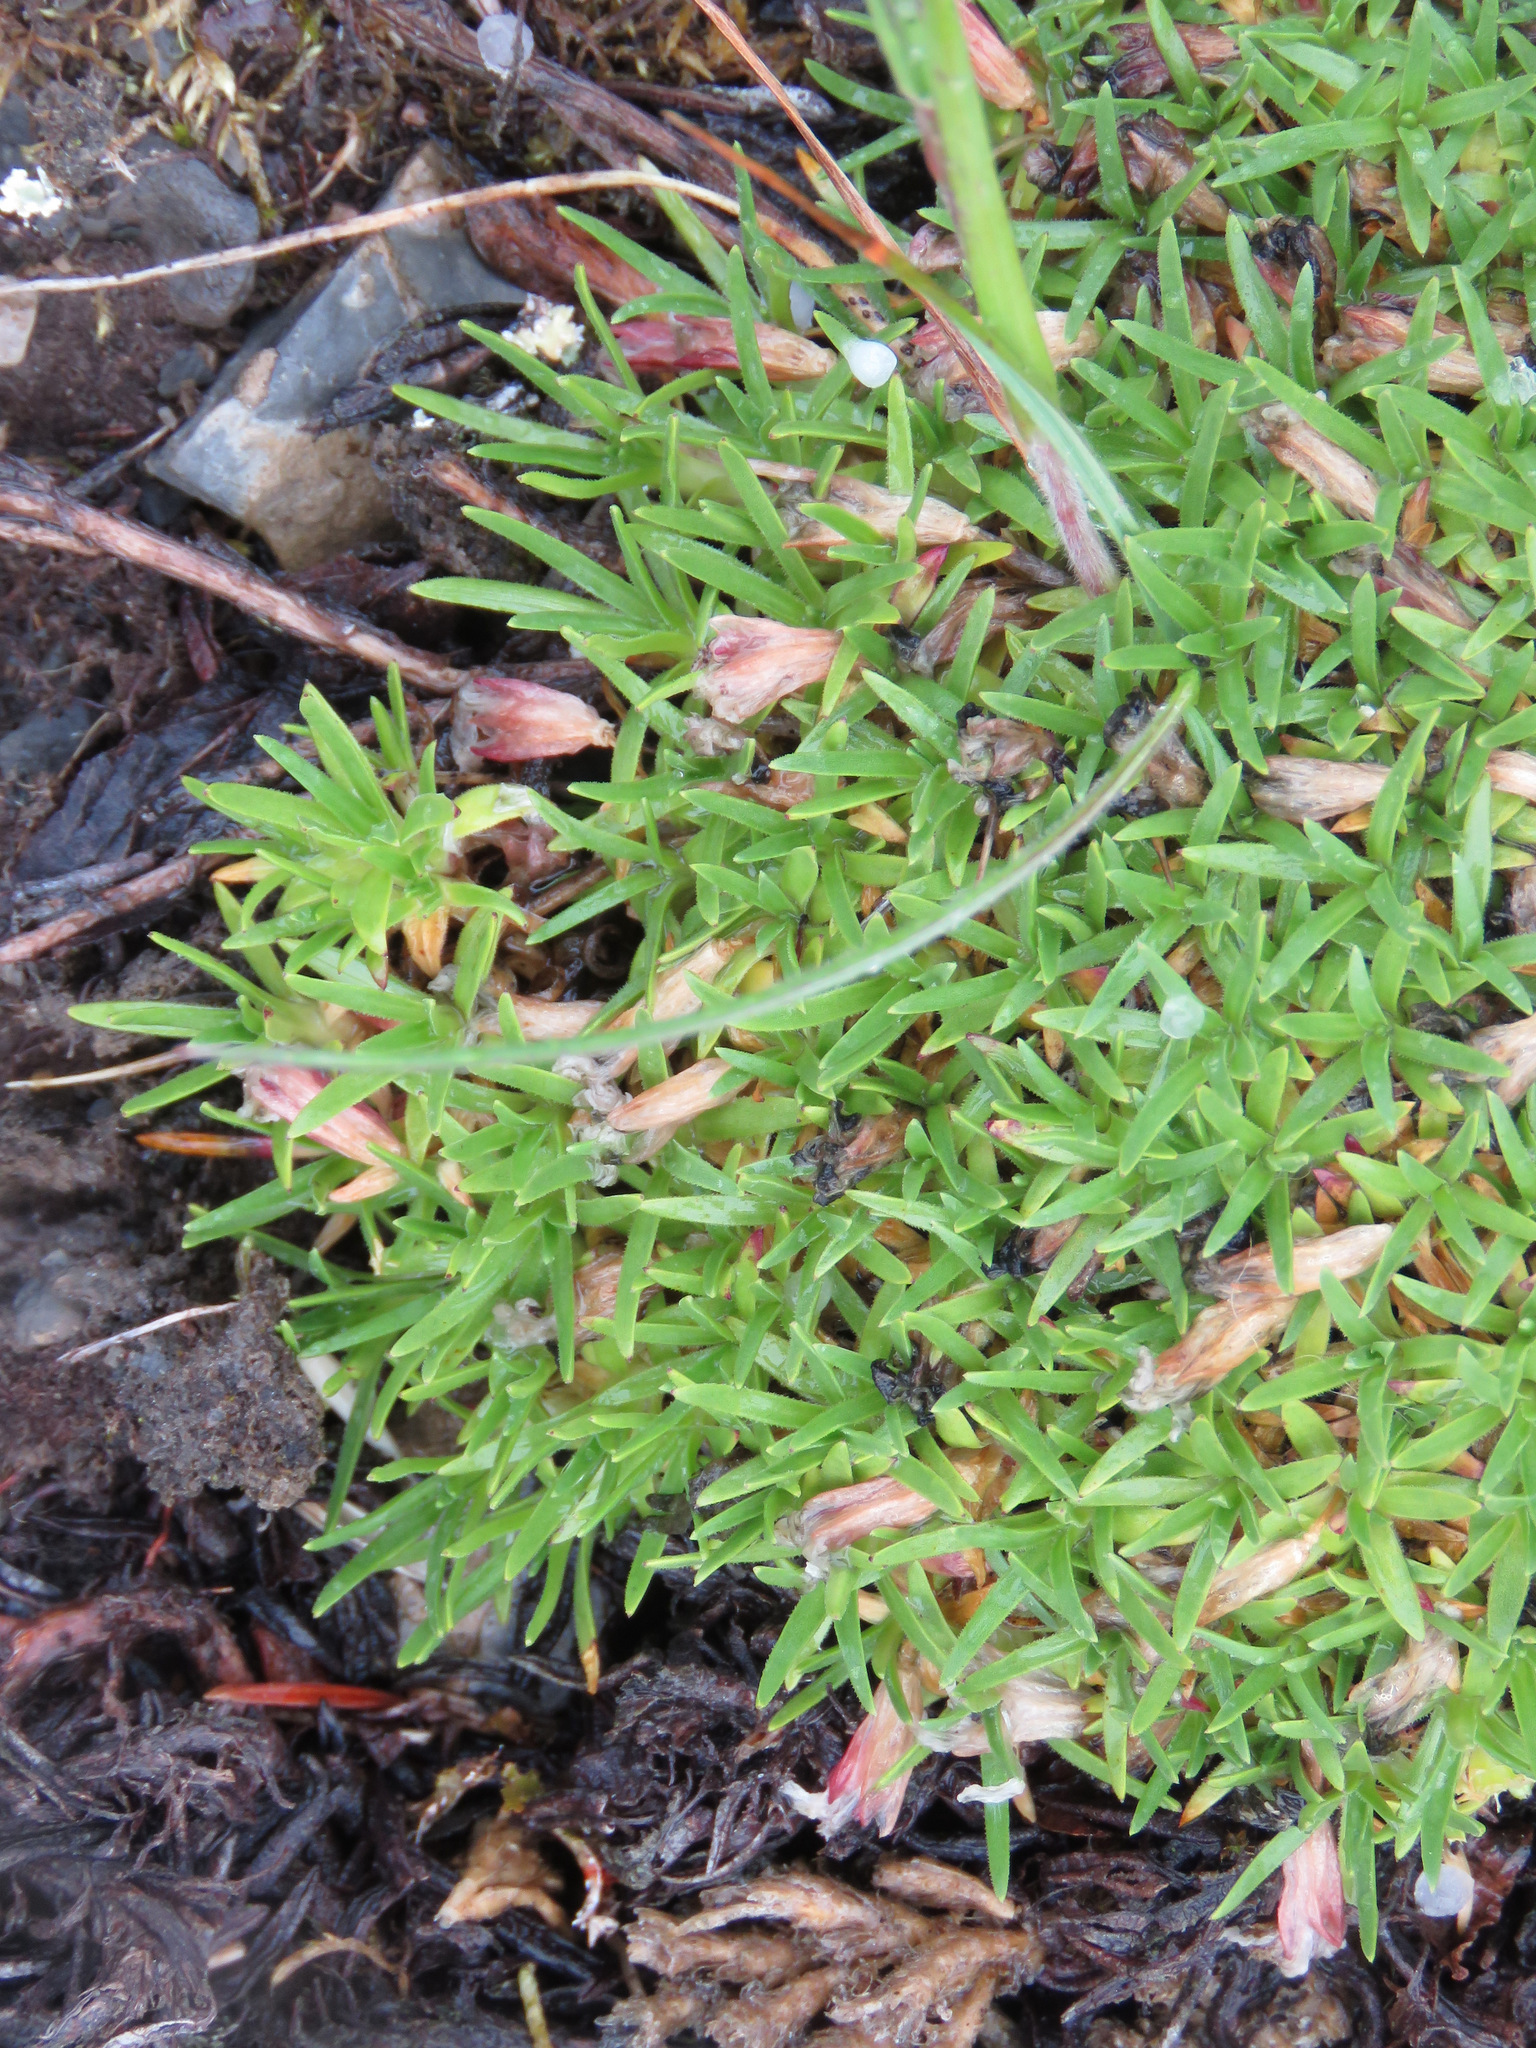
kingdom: Plantae
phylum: Tracheophyta
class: Magnoliopsida
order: Caryophyllales
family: Caryophyllaceae
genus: Silene
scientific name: Silene acaulis
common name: Moss campion
